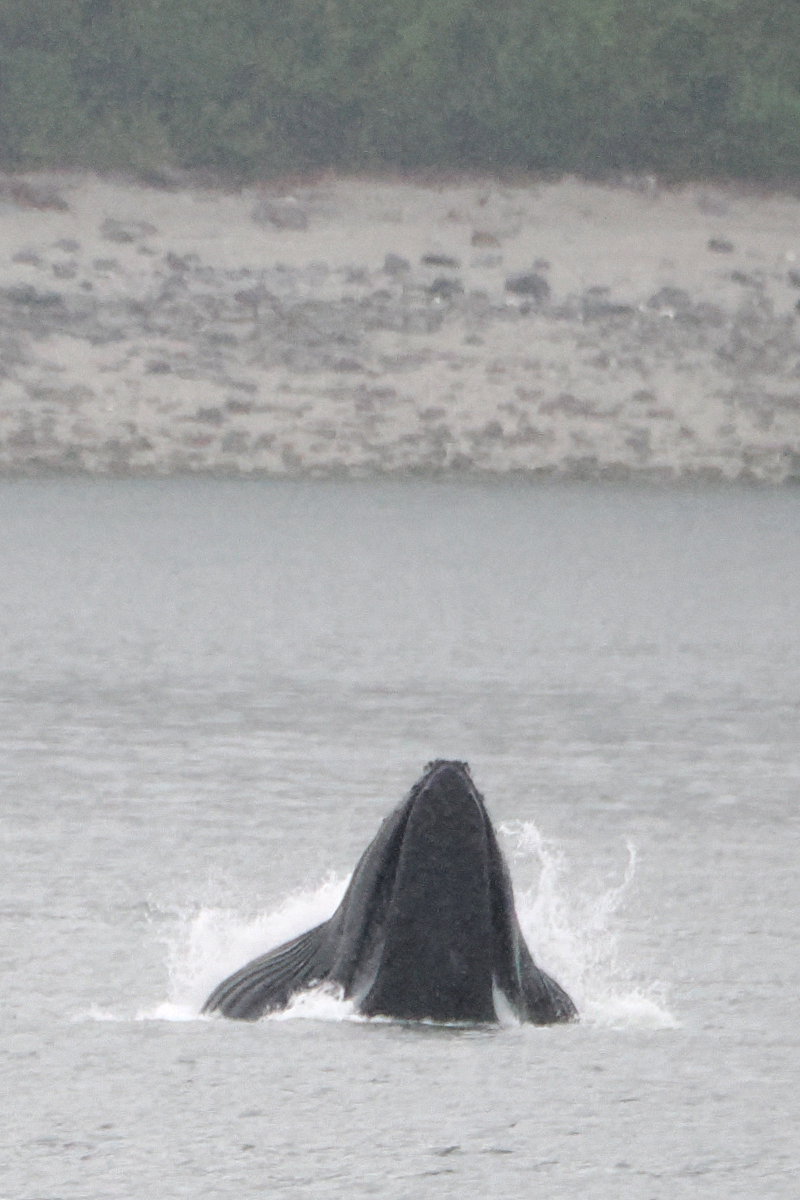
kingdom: Animalia
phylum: Chordata
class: Mammalia
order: Cetacea
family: Balaenopteridae
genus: Megaptera
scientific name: Megaptera novaeangliae
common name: Humpback whale
